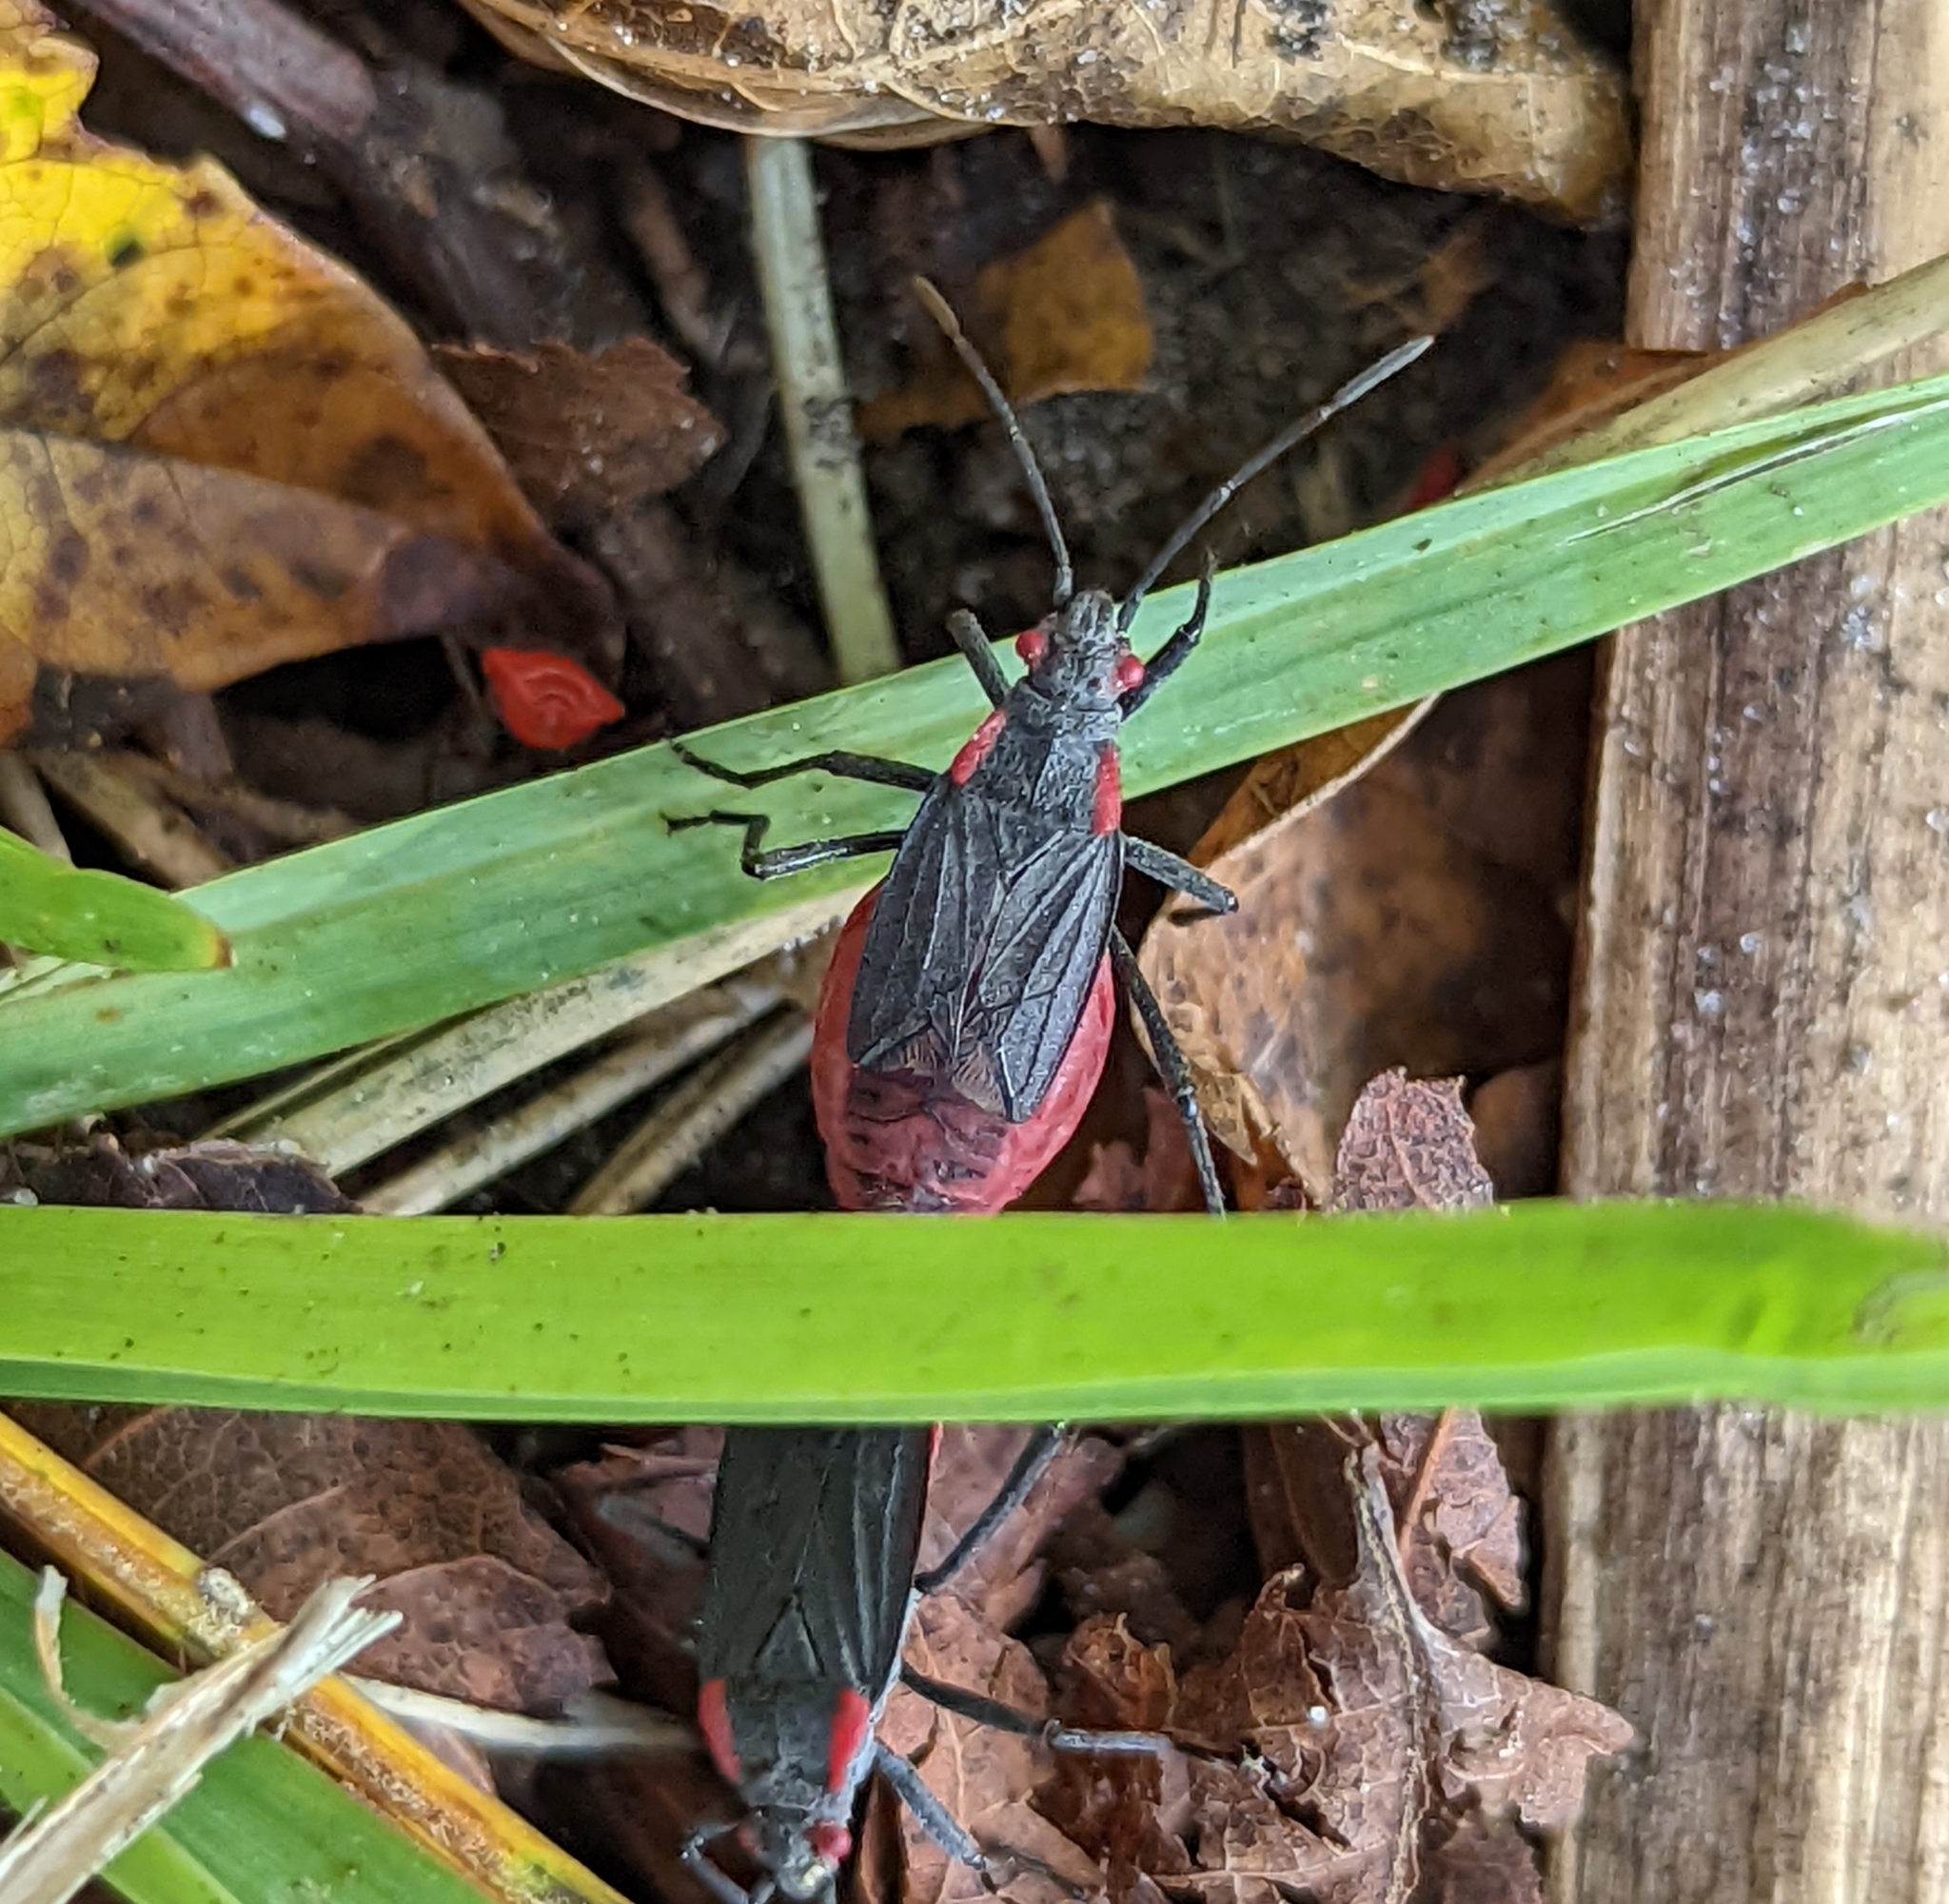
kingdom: Animalia
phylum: Arthropoda
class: Insecta
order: Hemiptera
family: Rhopalidae
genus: Jadera
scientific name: Jadera haematoloma
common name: Red-shouldered bug
